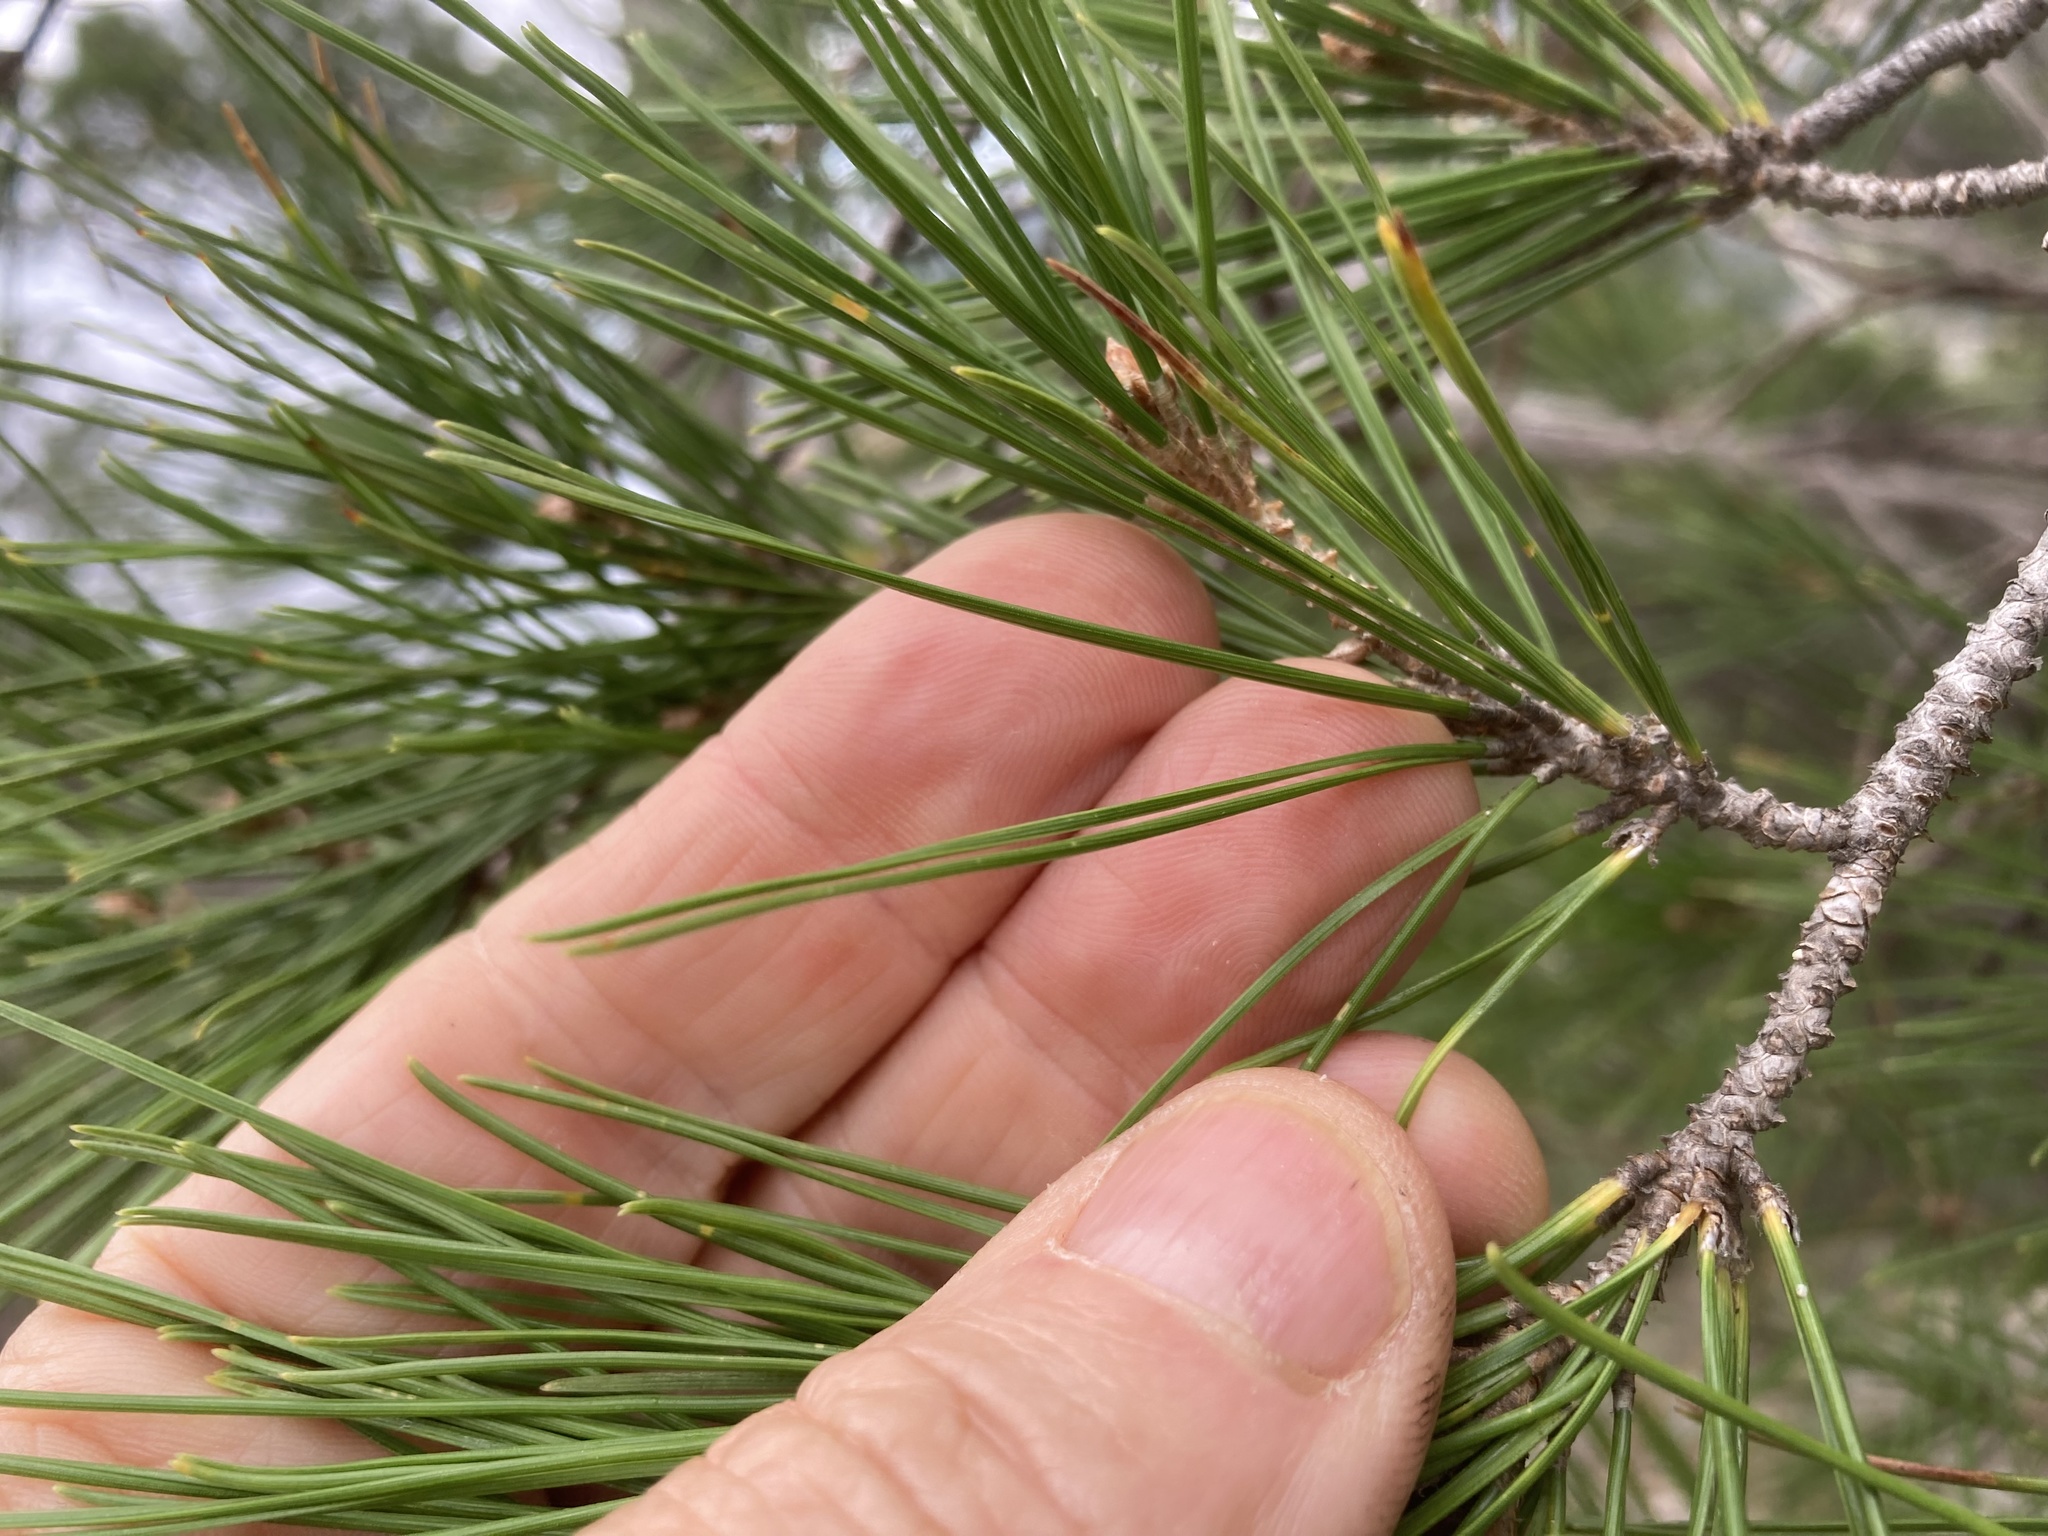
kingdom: Plantae
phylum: Tracheophyta
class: Pinopsida
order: Pinales
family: Pinaceae
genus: Pinus
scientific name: Pinus halepensis
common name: Aleppo pine
